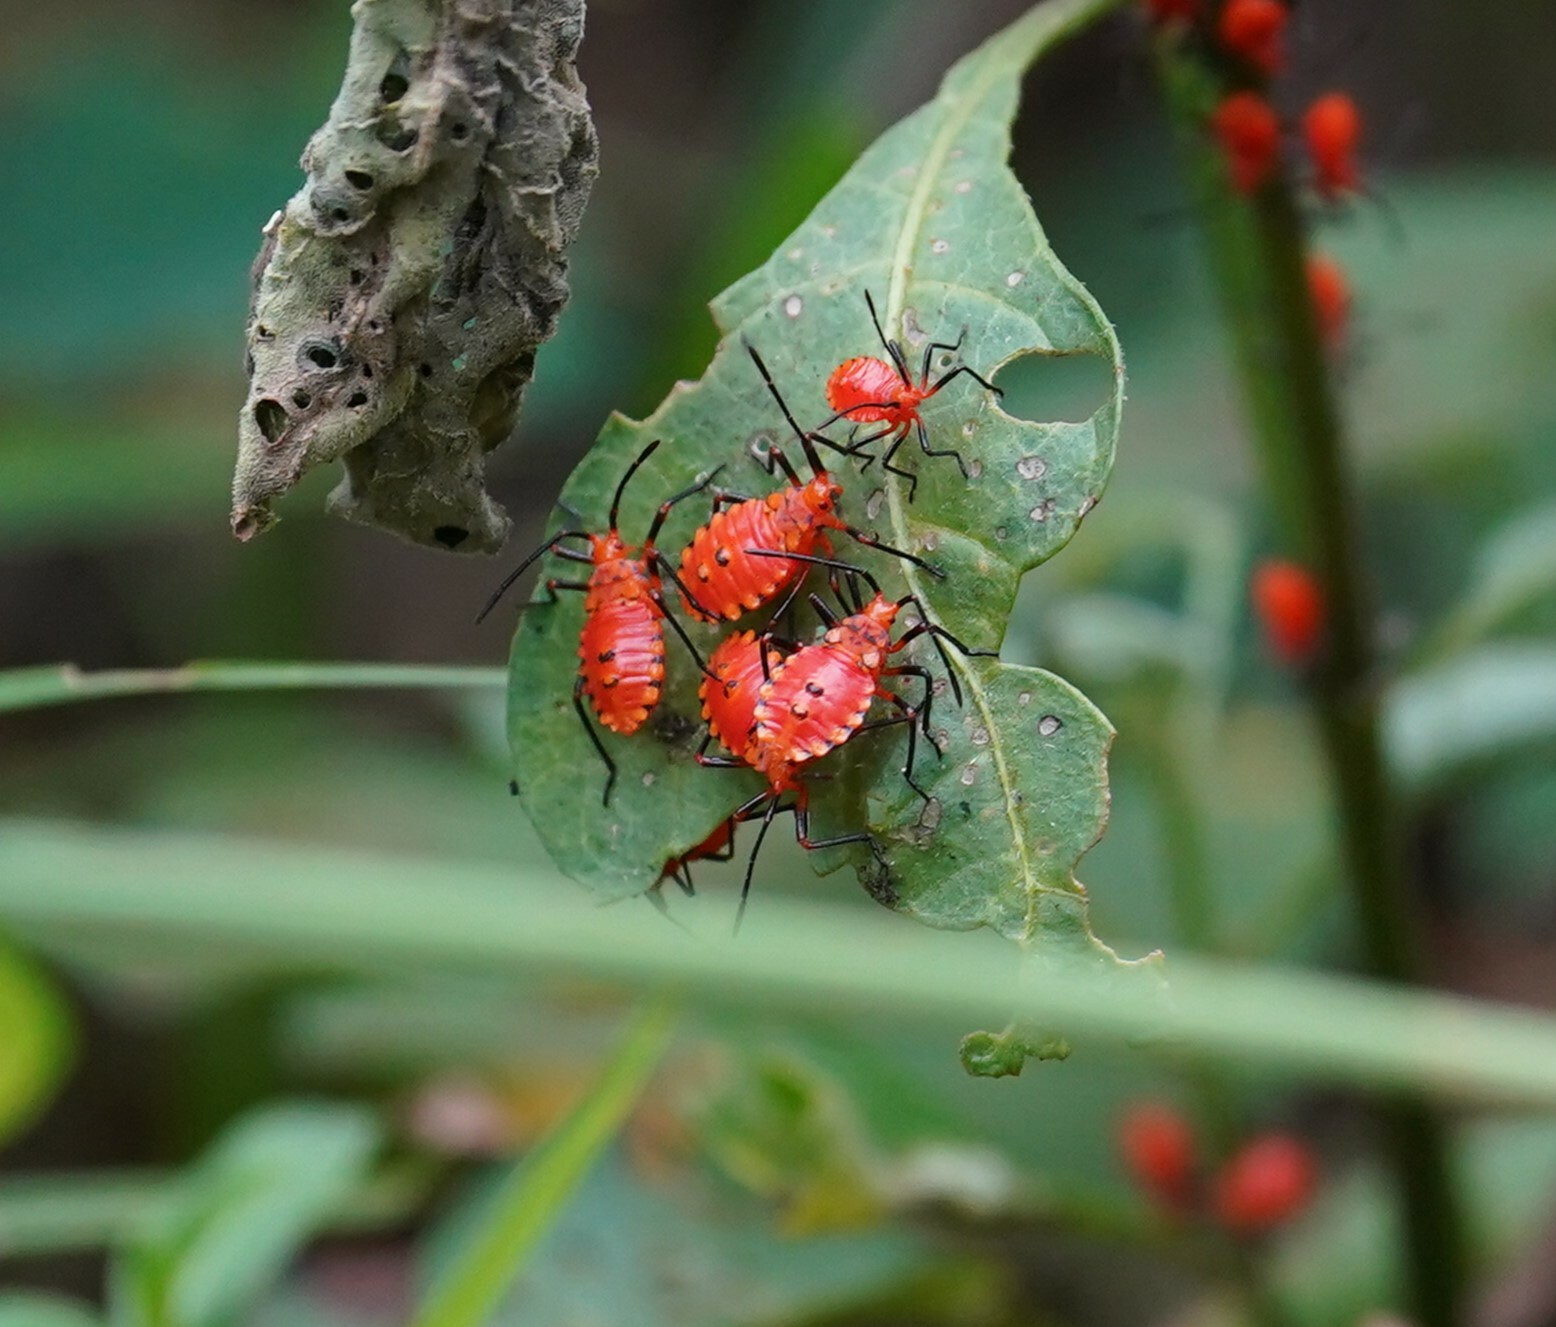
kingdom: Animalia
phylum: Arthropoda
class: Insecta
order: Hemiptera
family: Coreidae
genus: Spartocera
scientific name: Spartocera fusca
